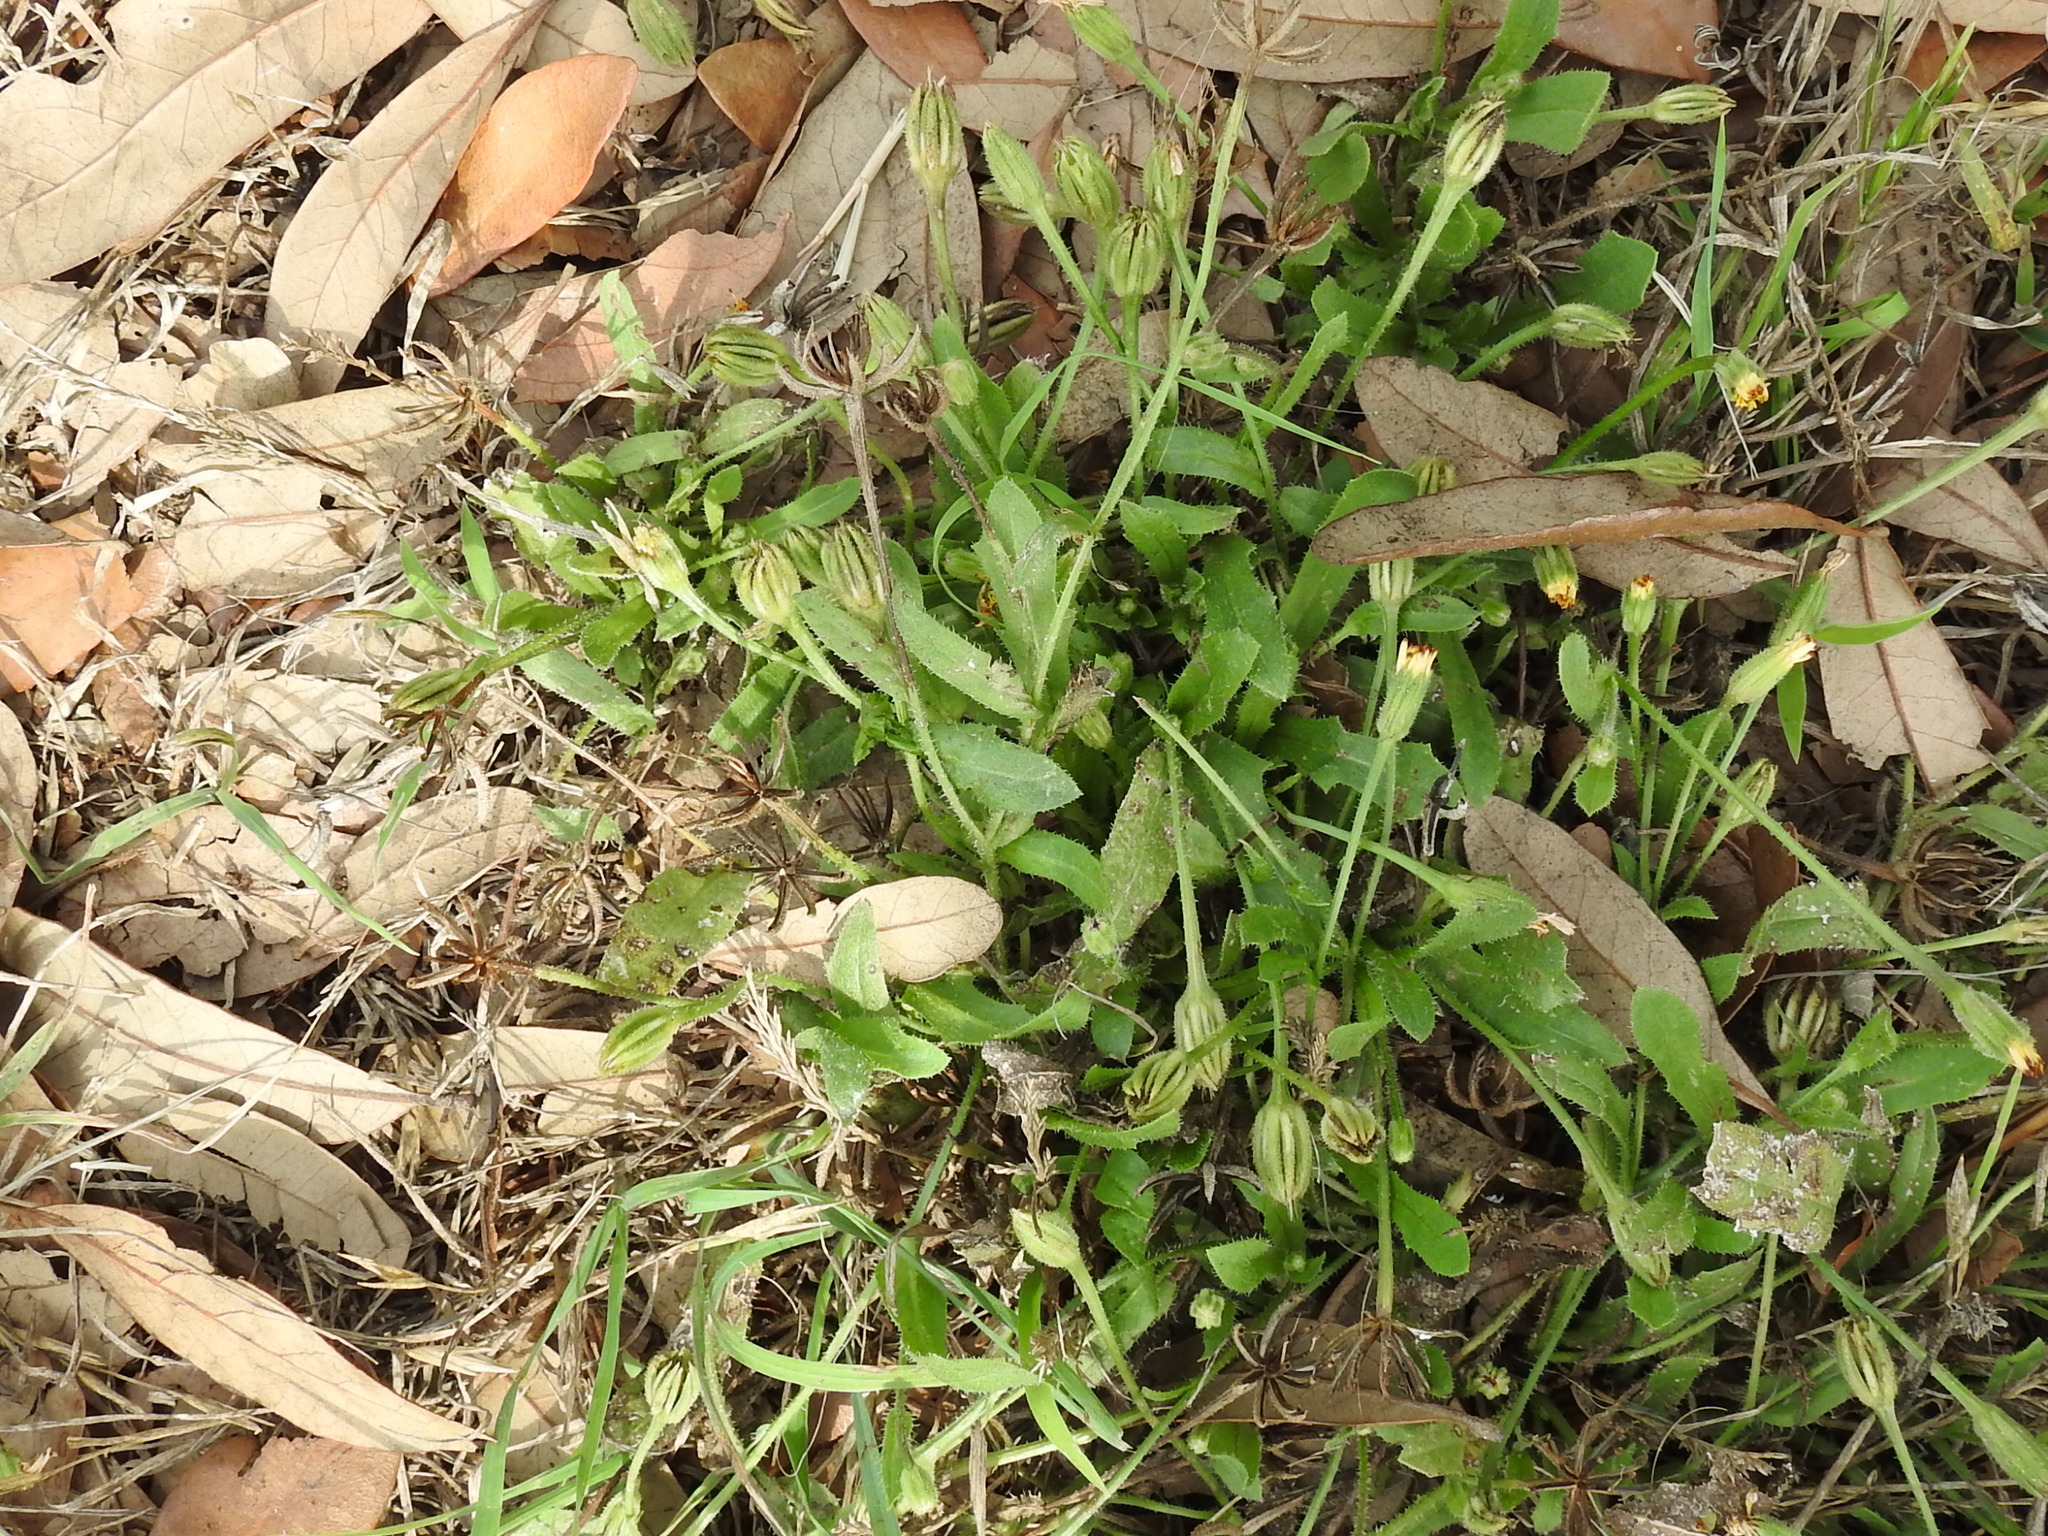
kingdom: Plantae
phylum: Tracheophyta
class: Magnoliopsida
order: Asterales
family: Asteraceae
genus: Hedypnois
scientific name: Hedypnois rhagadioloides
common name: Cretan weed
